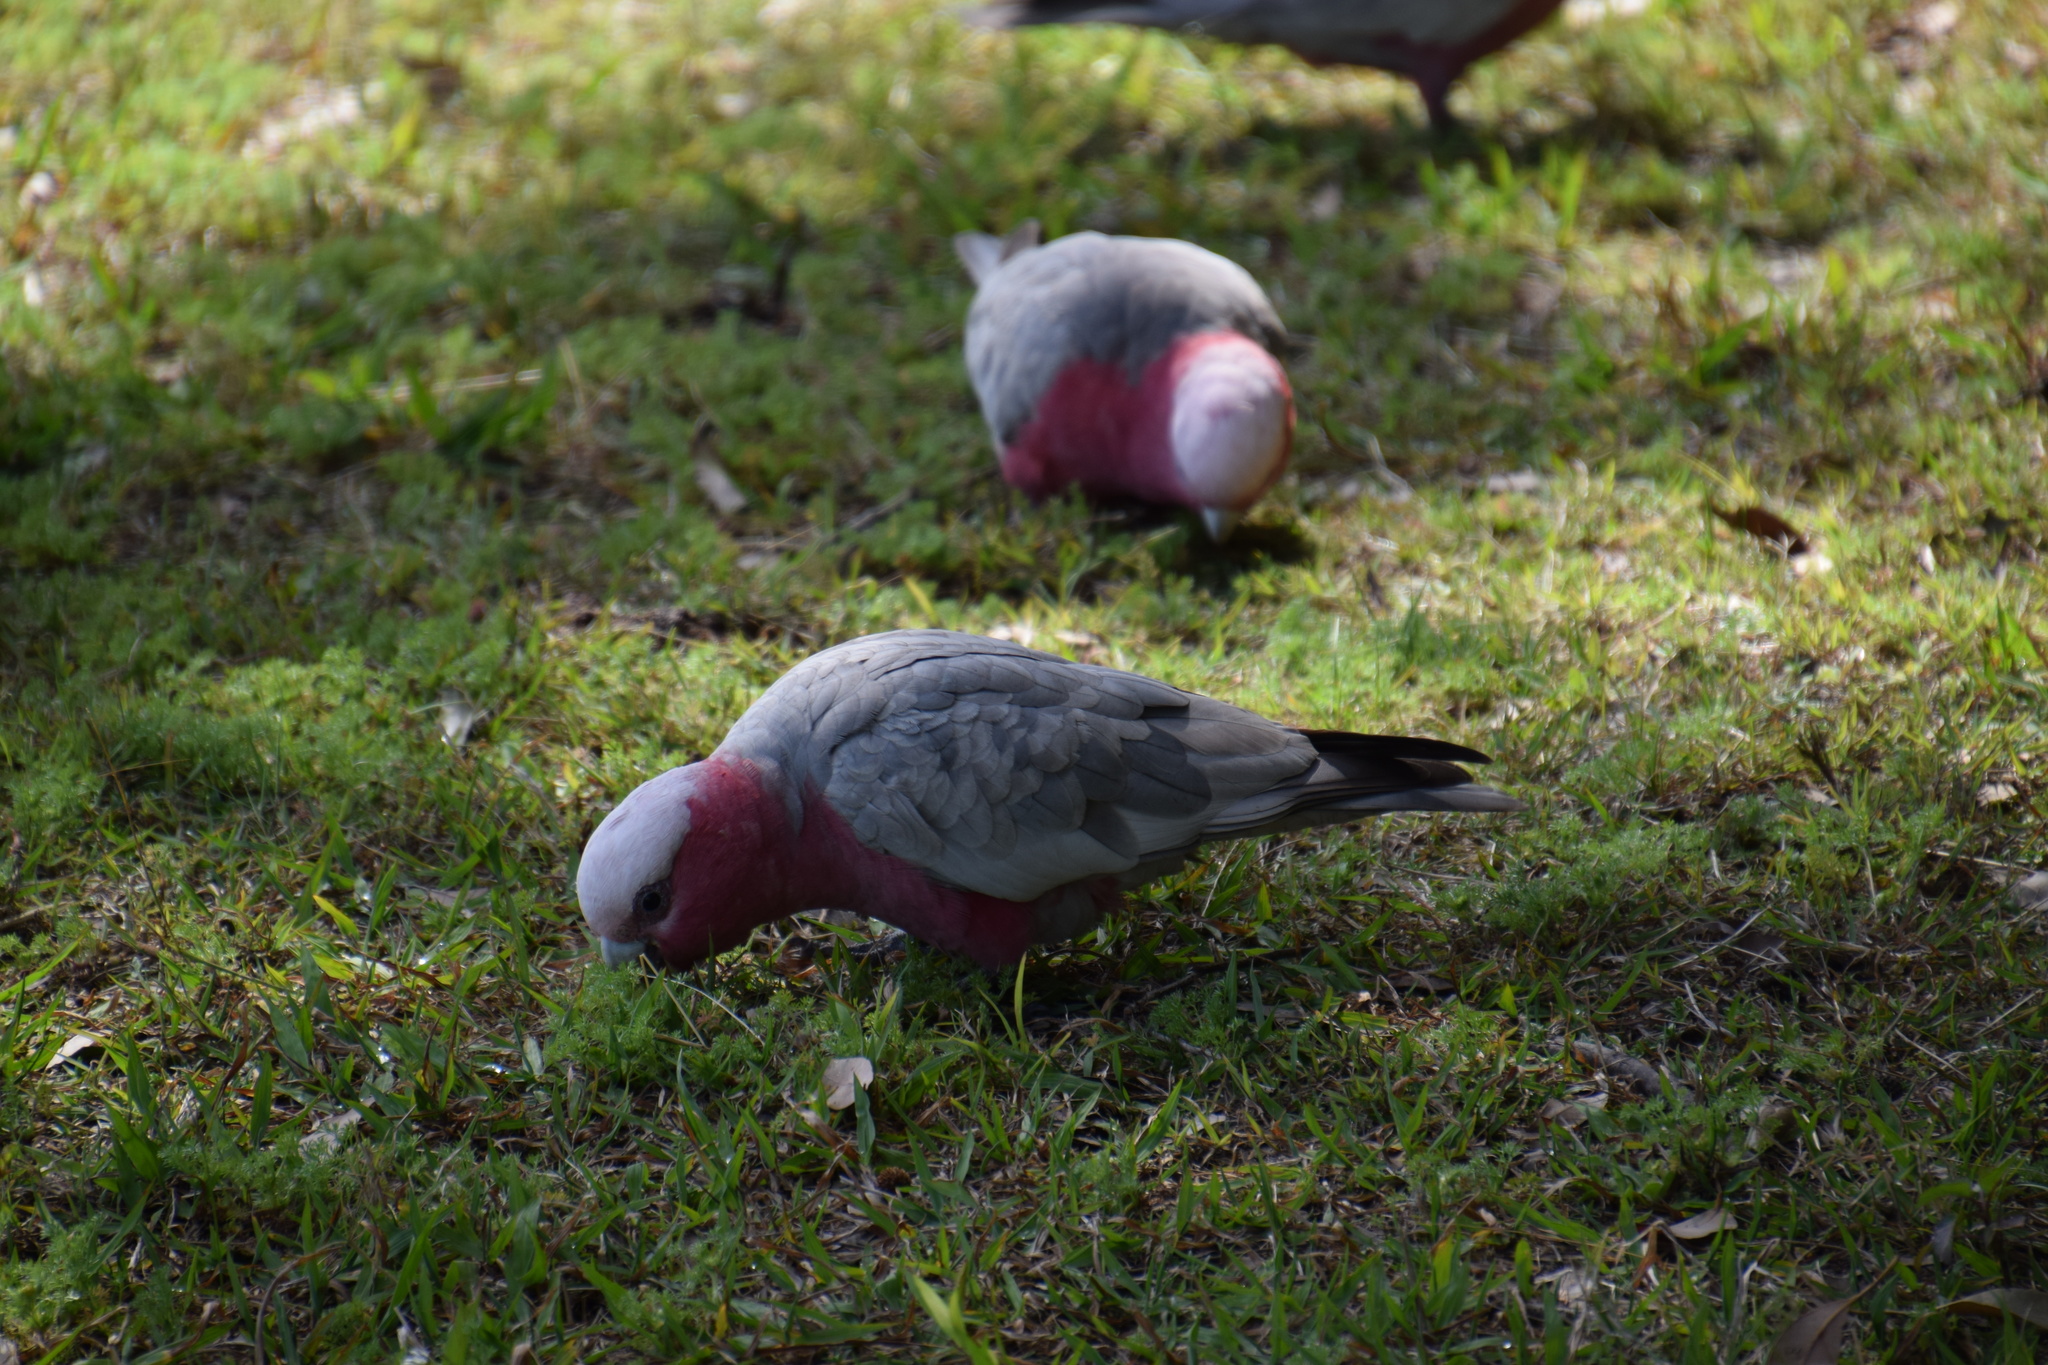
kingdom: Animalia
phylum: Chordata
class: Aves
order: Psittaciformes
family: Psittacidae
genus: Eolophus
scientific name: Eolophus roseicapilla
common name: Galah
